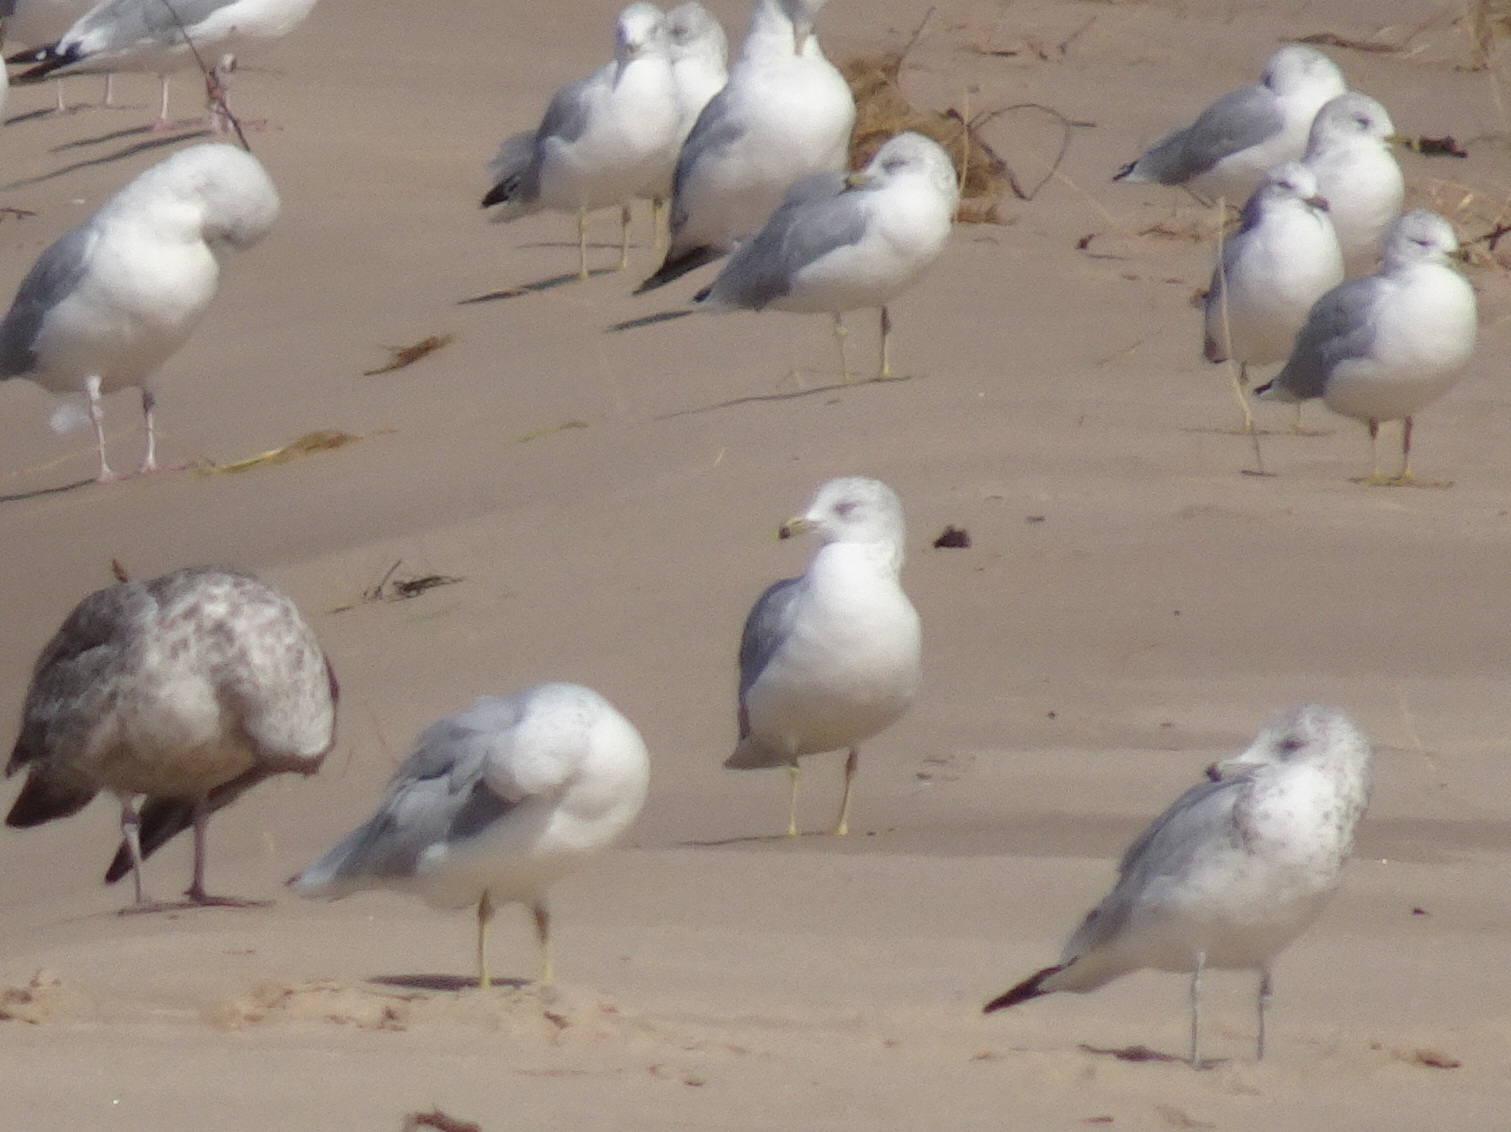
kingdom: Animalia
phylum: Chordata
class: Aves
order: Charadriiformes
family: Laridae
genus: Larus
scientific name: Larus delawarensis
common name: Ring-billed gull
